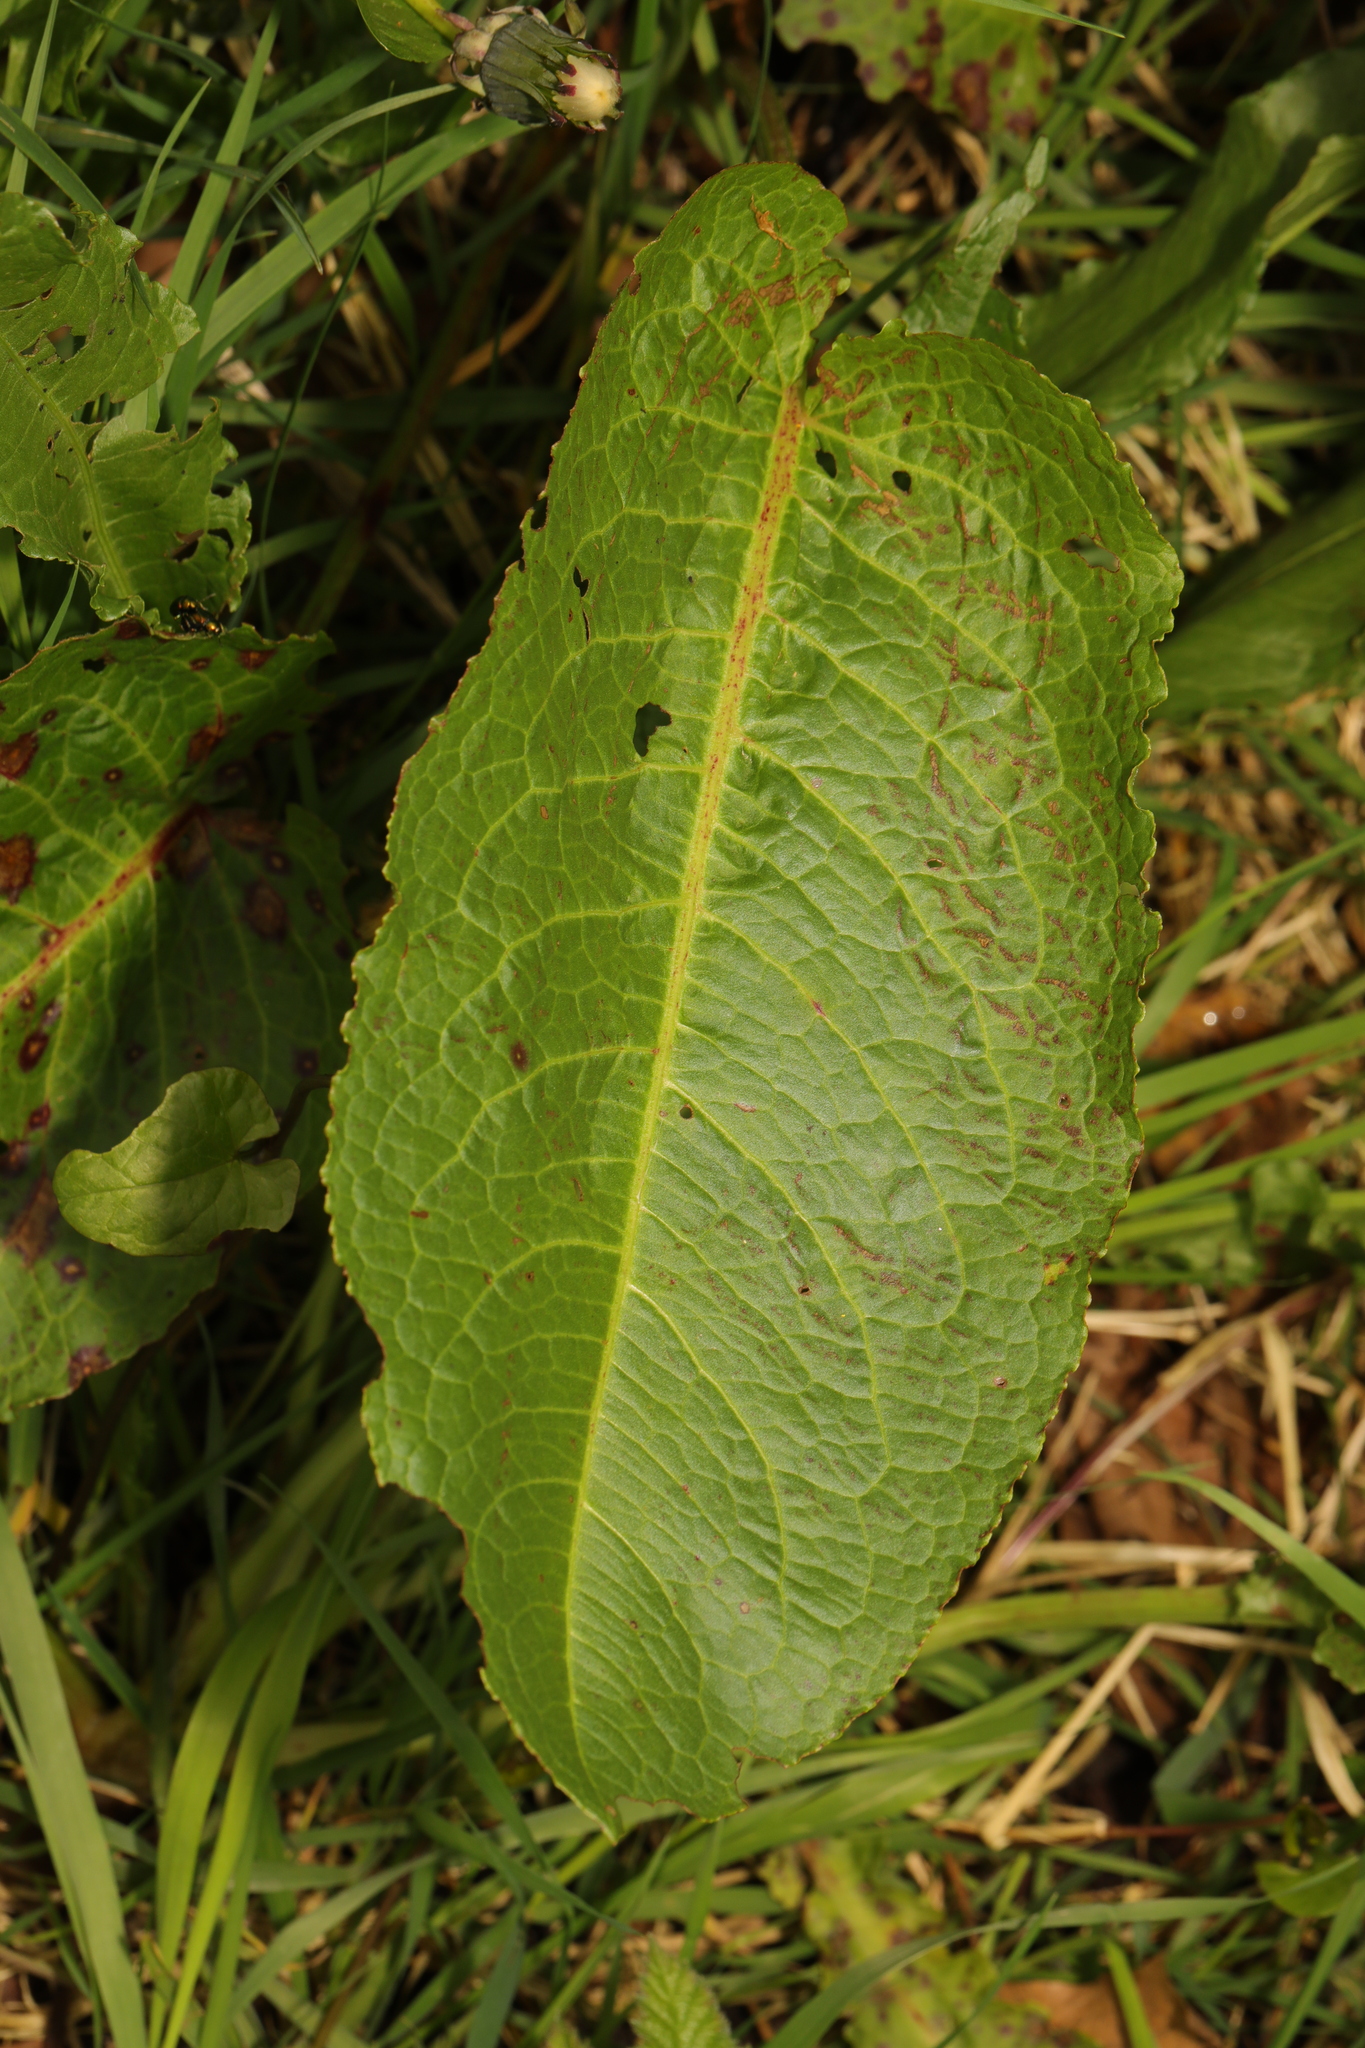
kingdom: Plantae
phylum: Tracheophyta
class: Magnoliopsida
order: Caryophyllales
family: Polygonaceae
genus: Rumex
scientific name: Rumex obtusifolius
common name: Bitter dock
